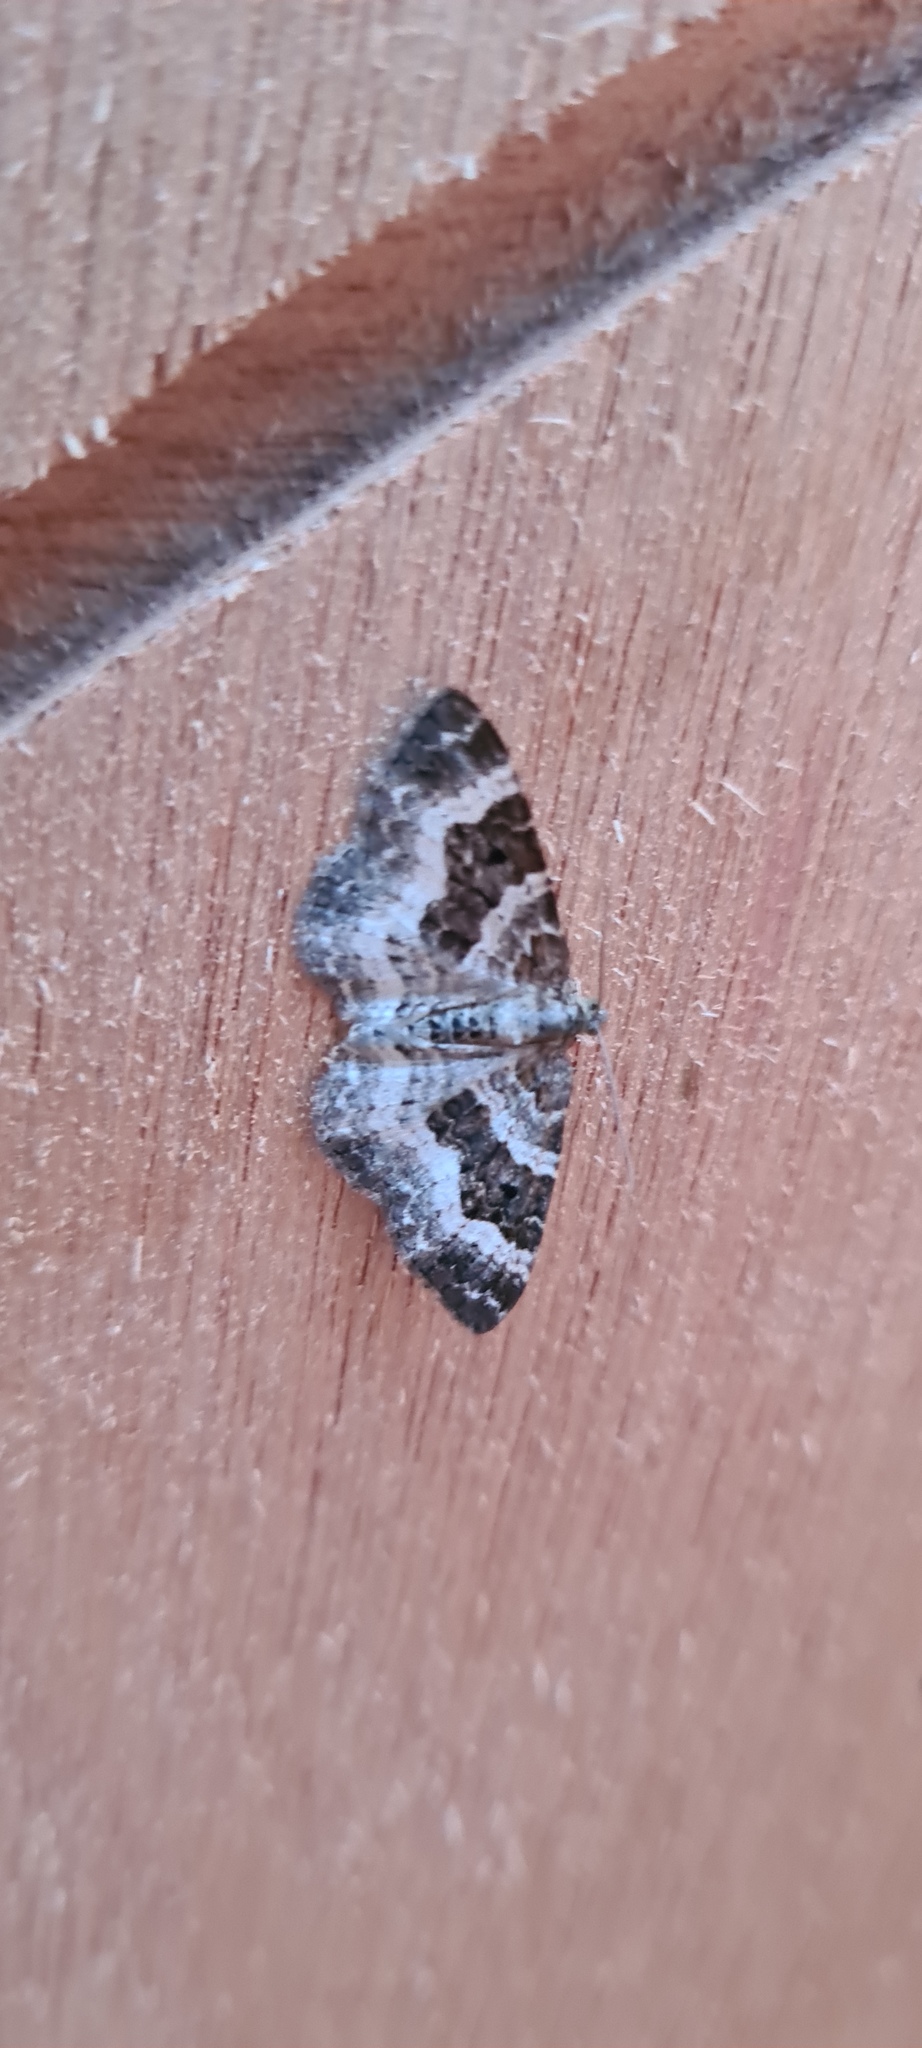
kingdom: Animalia
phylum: Arthropoda
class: Insecta
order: Lepidoptera
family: Geometridae
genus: Epirrhoe
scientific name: Epirrhoe alternata
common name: Common carpet
